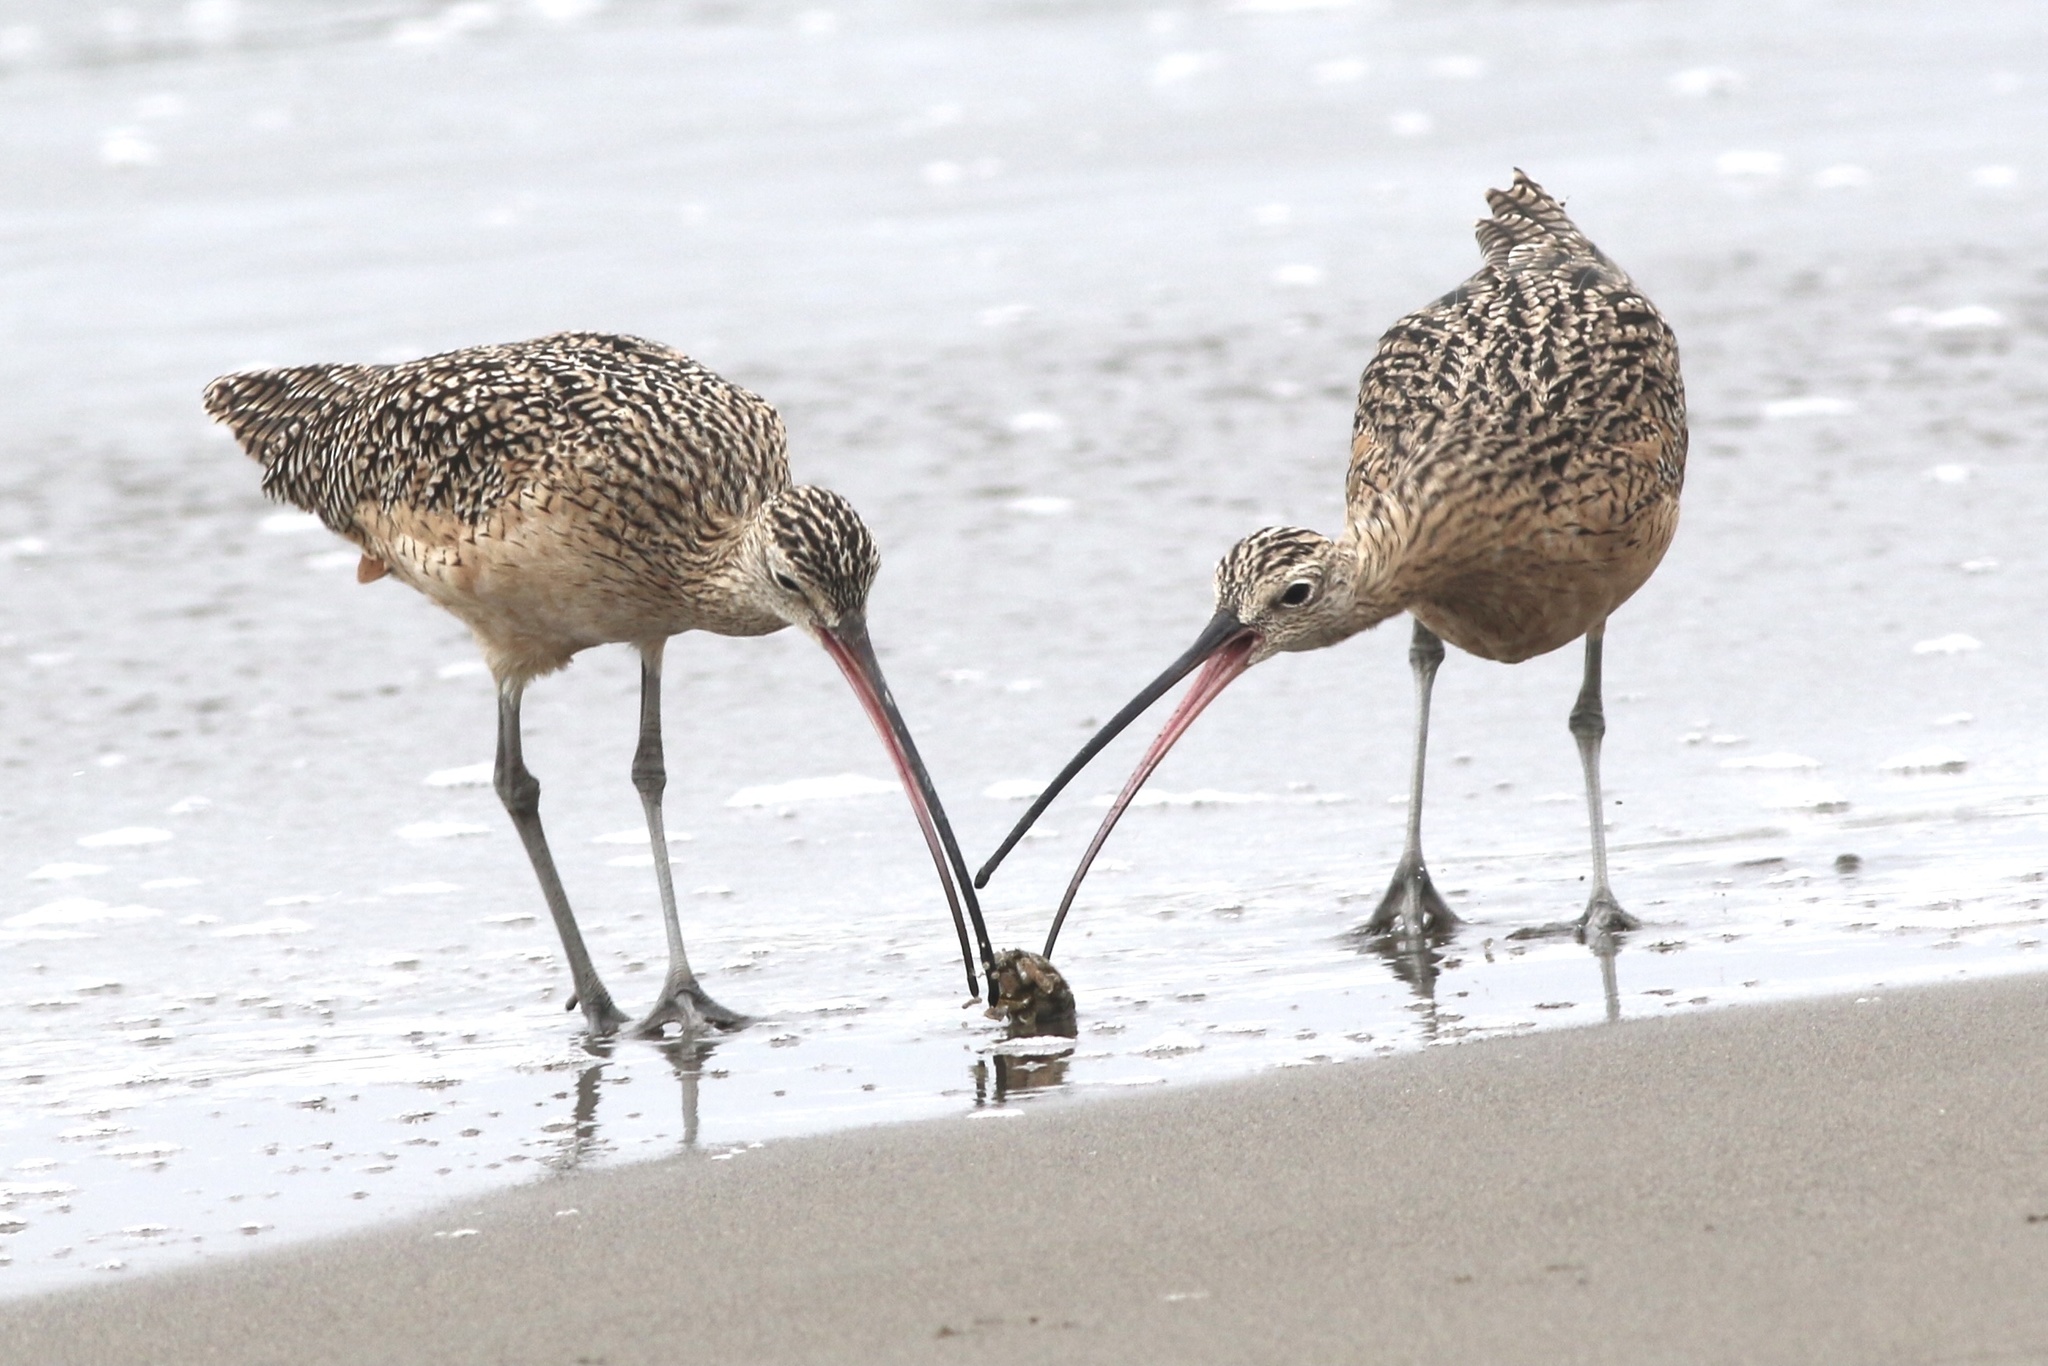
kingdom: Animalia
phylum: Chordata
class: Aves
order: Charadriiformes
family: Scolopacidae
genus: Numenius
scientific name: Numenius americanus
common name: Long-billed curlew
